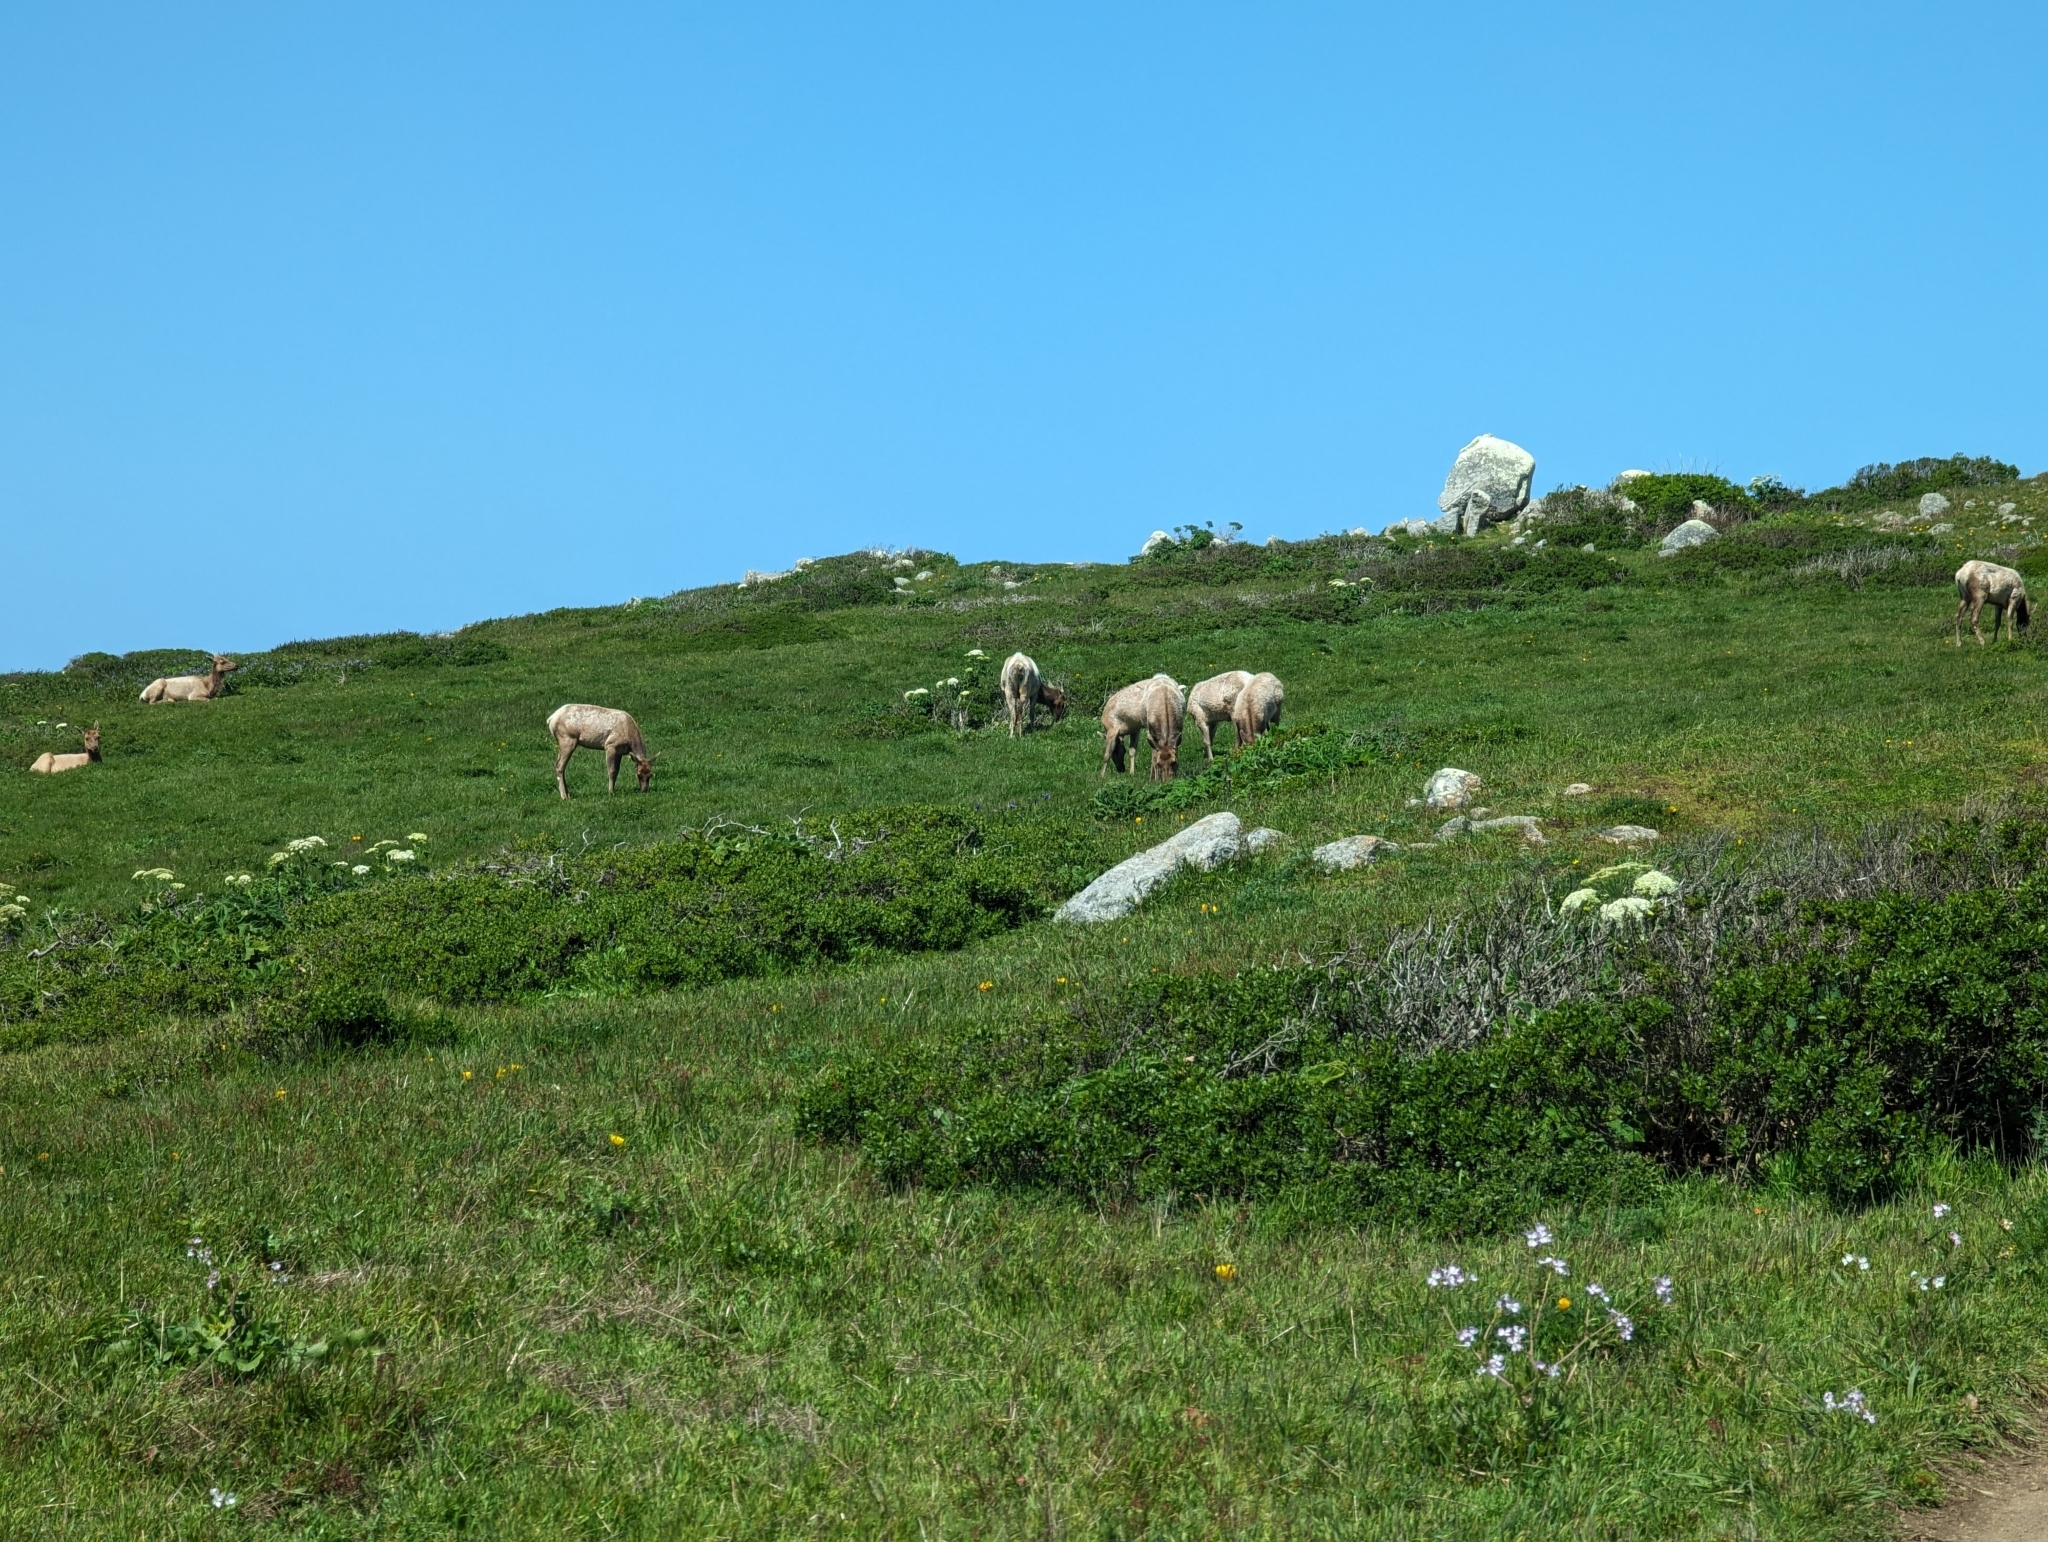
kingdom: Animalia
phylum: Chordata
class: Mammalia
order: Artiodactyla
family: Cervidae
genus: Cervus
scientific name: Cervus elaphus
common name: Red deer
